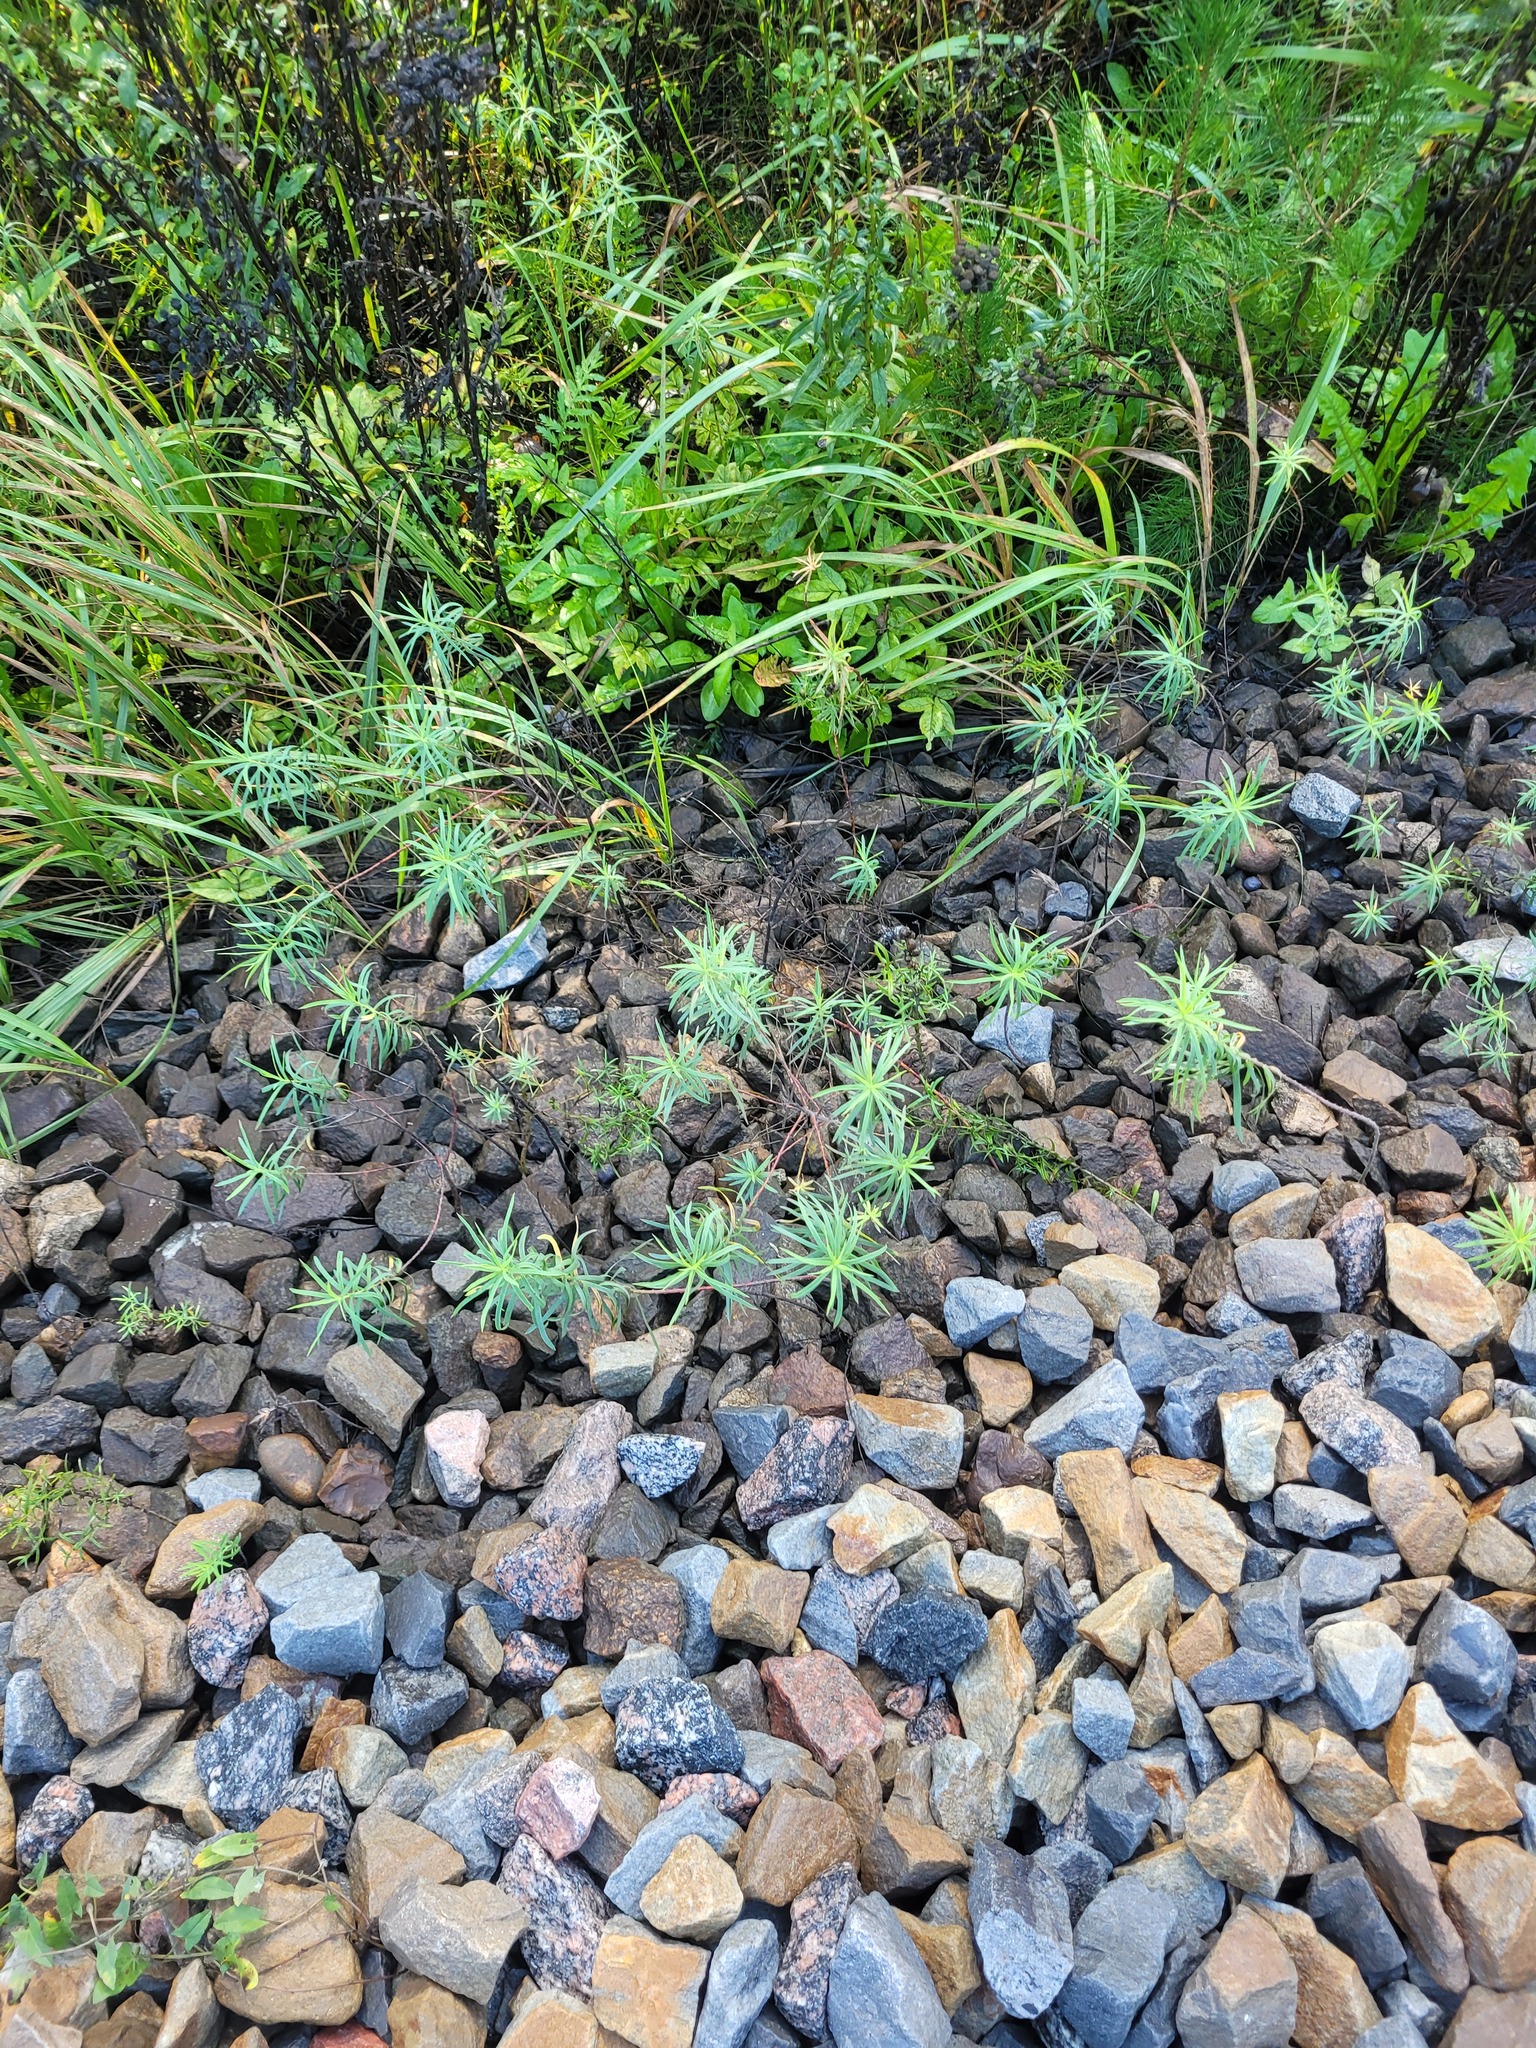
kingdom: Plantae
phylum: Tracheophyta
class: Magnoliopsida
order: Malpighiales
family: Euphorbiaceae
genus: Euphorbia
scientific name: Euphorbia virgata
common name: Leafy spurge
